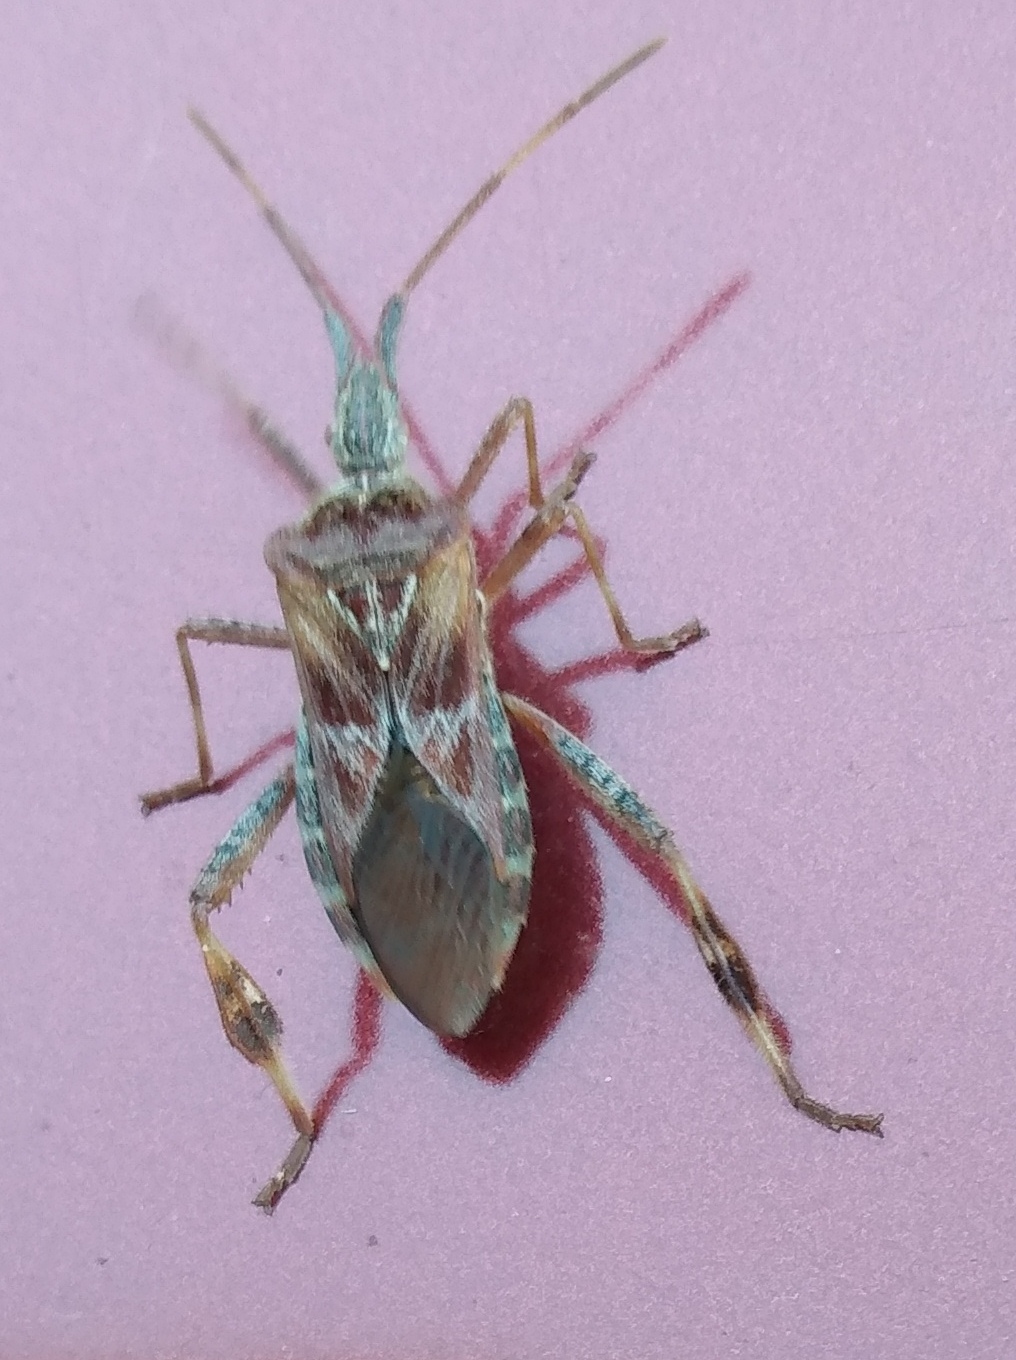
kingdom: Animalia
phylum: Arthropoda
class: Insecta
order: Hemiptera
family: Coreidae
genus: Leptoglossus
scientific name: Leptoglossus occidentalis
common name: Western conifer-seed bug
